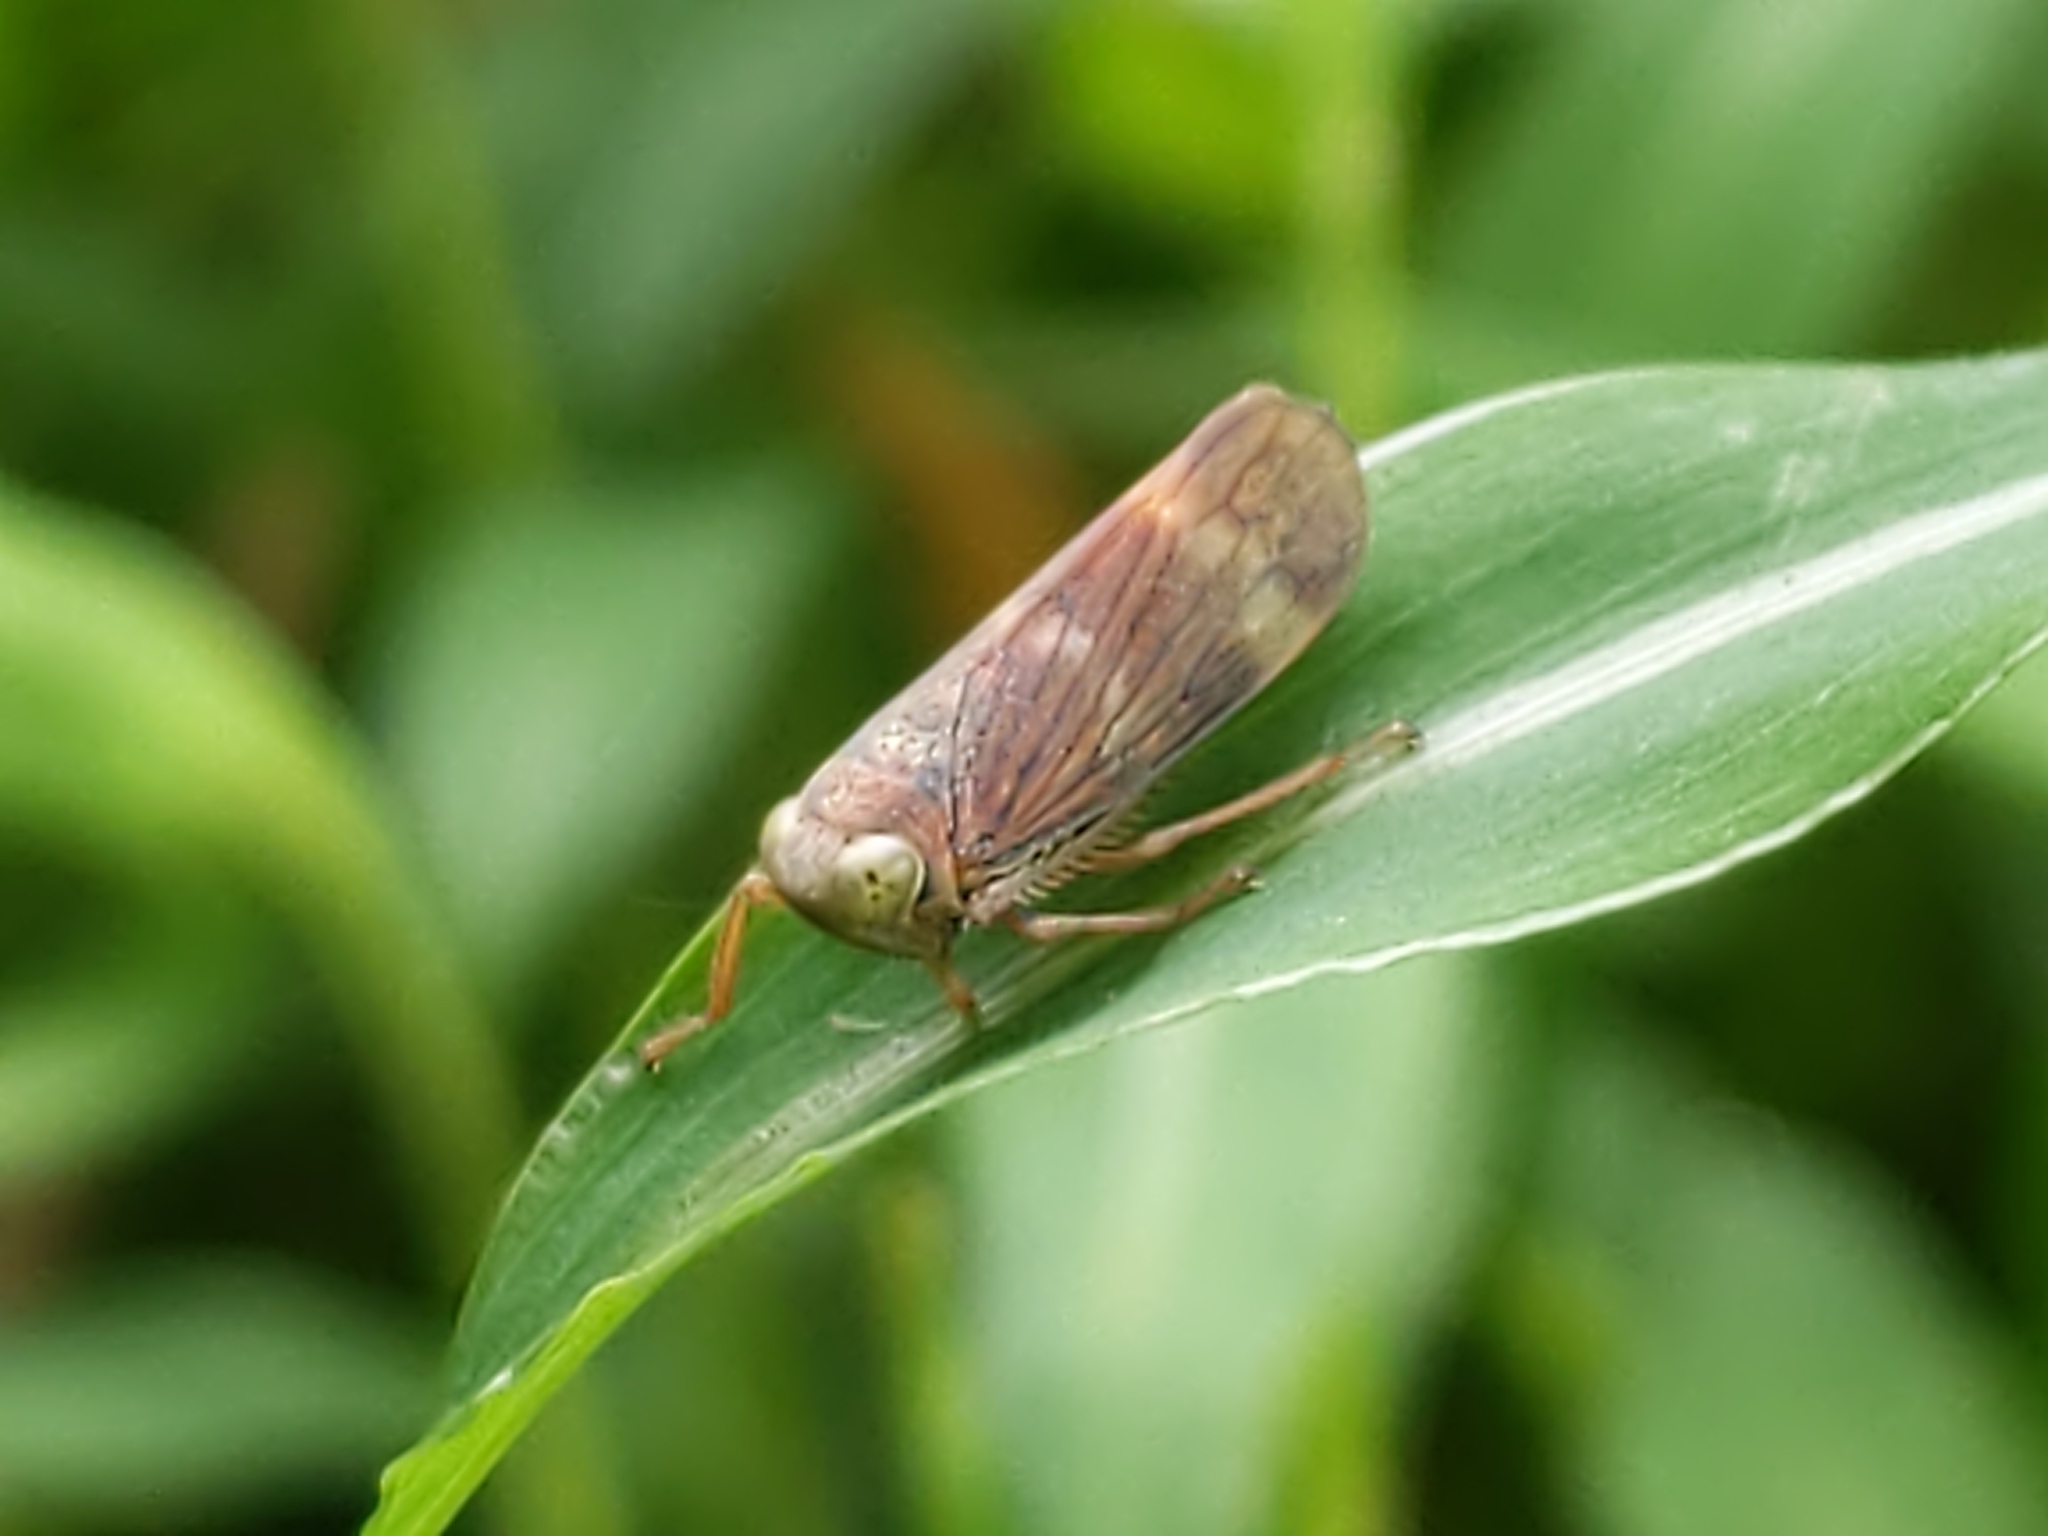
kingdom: Animalia
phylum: Arthropoda
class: Insecta
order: Hemiptera
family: Cicadellidae
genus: Jikradia
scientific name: Jikradia olitoria
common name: Coppery leafhopper
